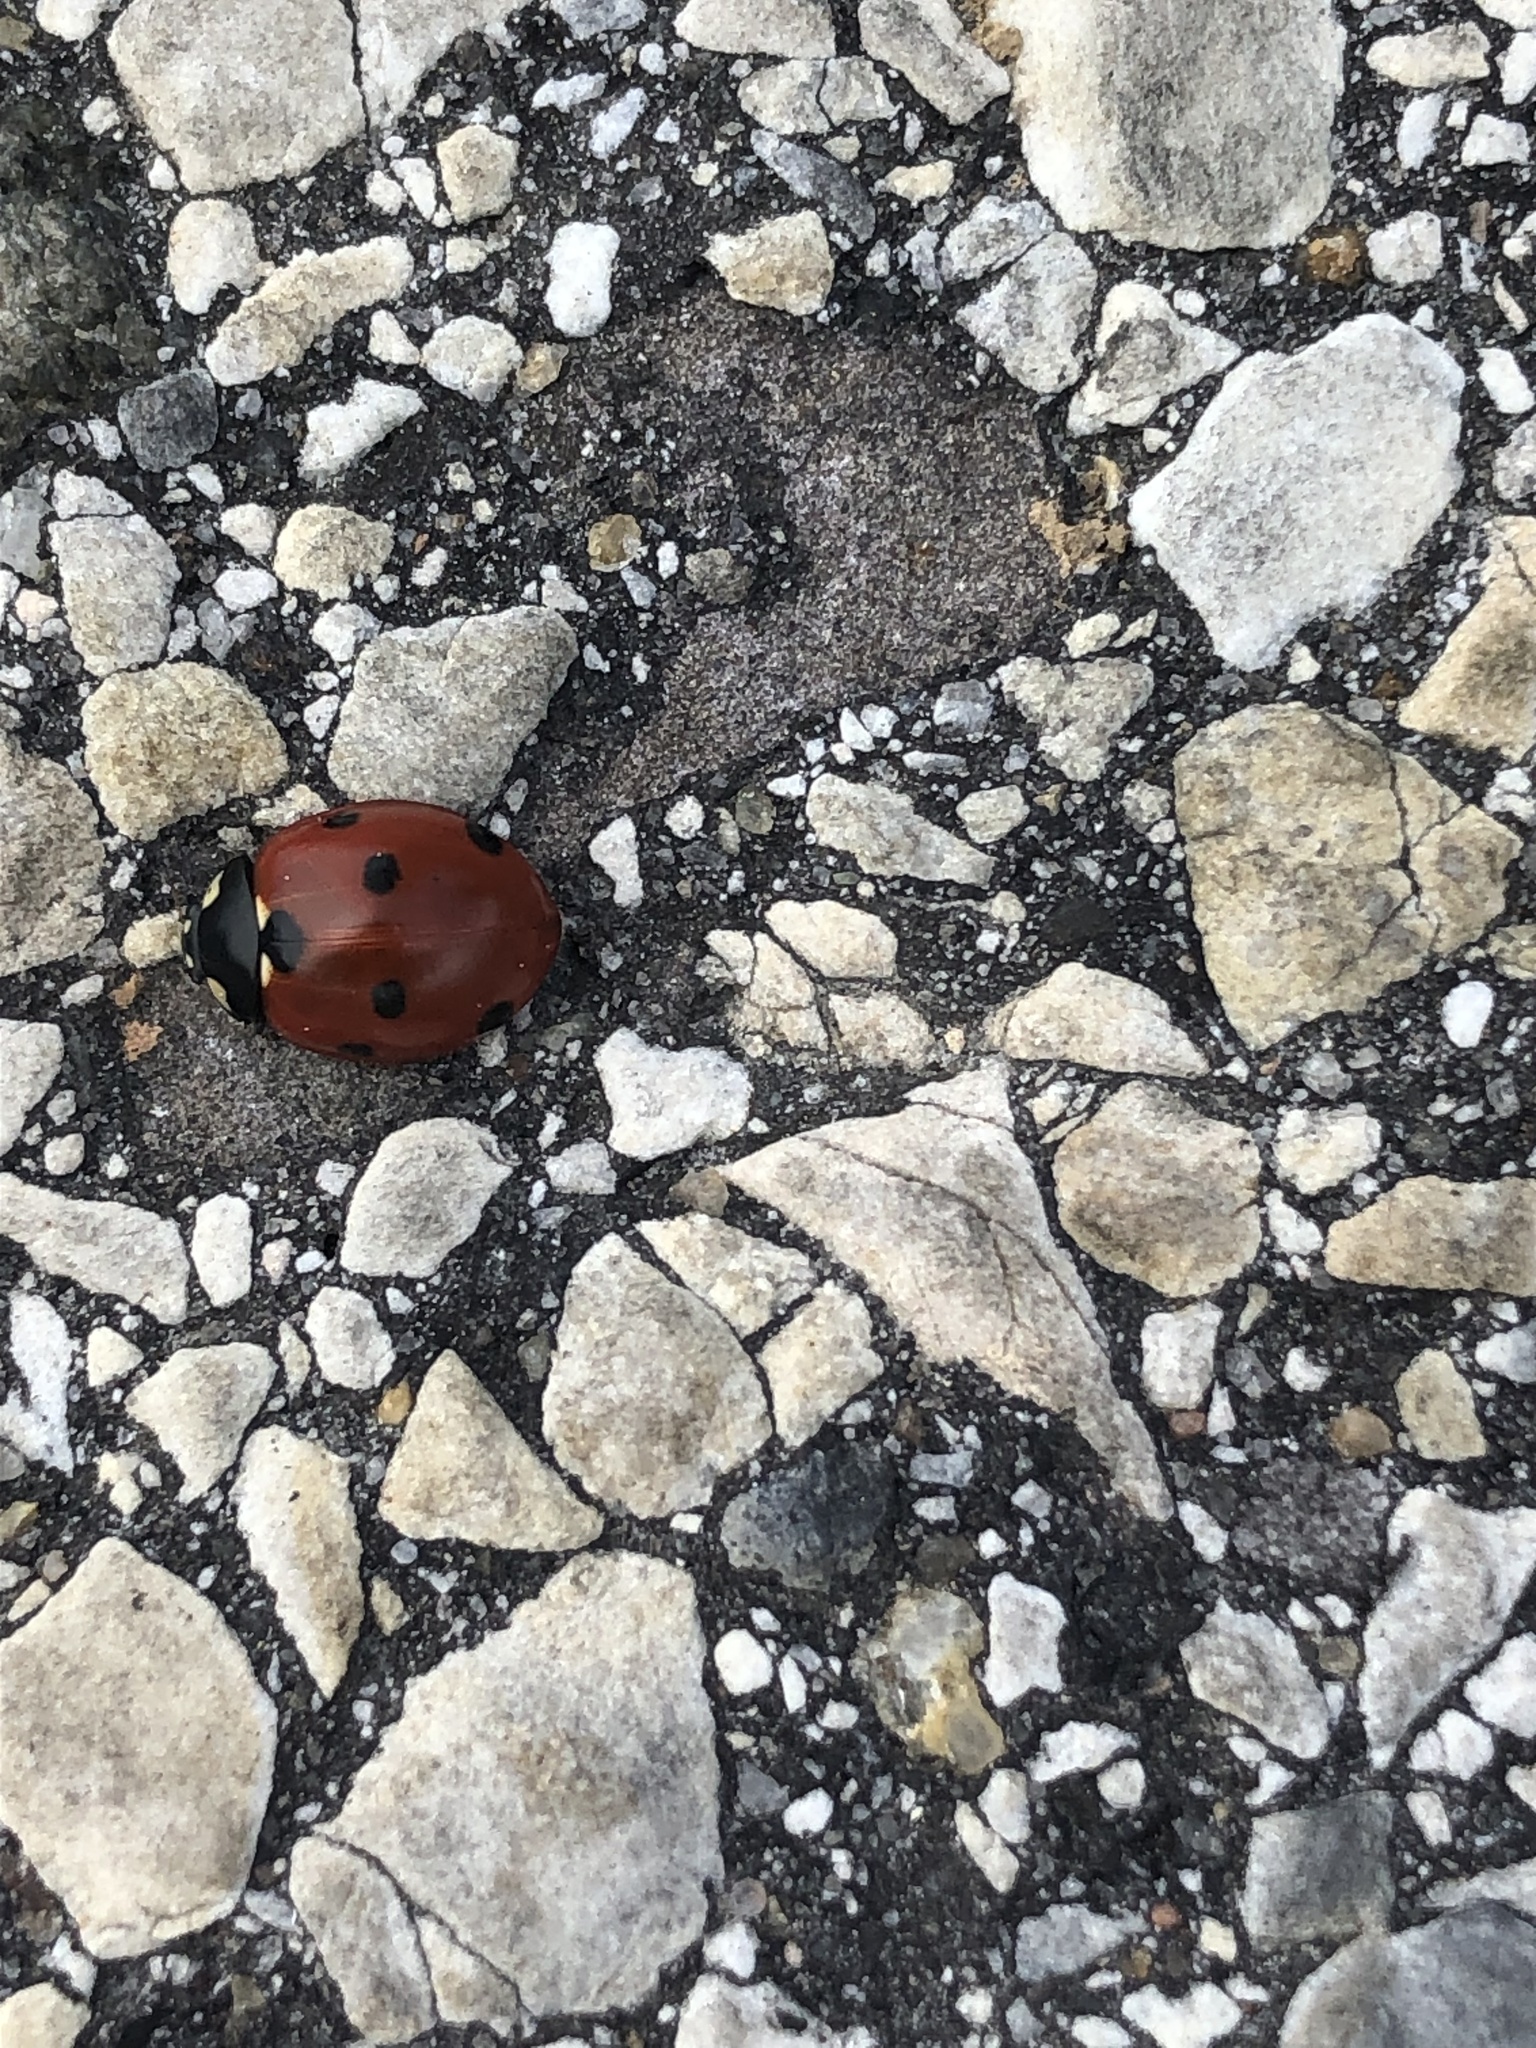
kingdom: Animalia
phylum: Arthropoda
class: Insecta
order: Coleoptera
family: Coccinellidae
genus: Coccinella
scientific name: Coccinella septempunctata
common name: Sevenspotted lady beetle
